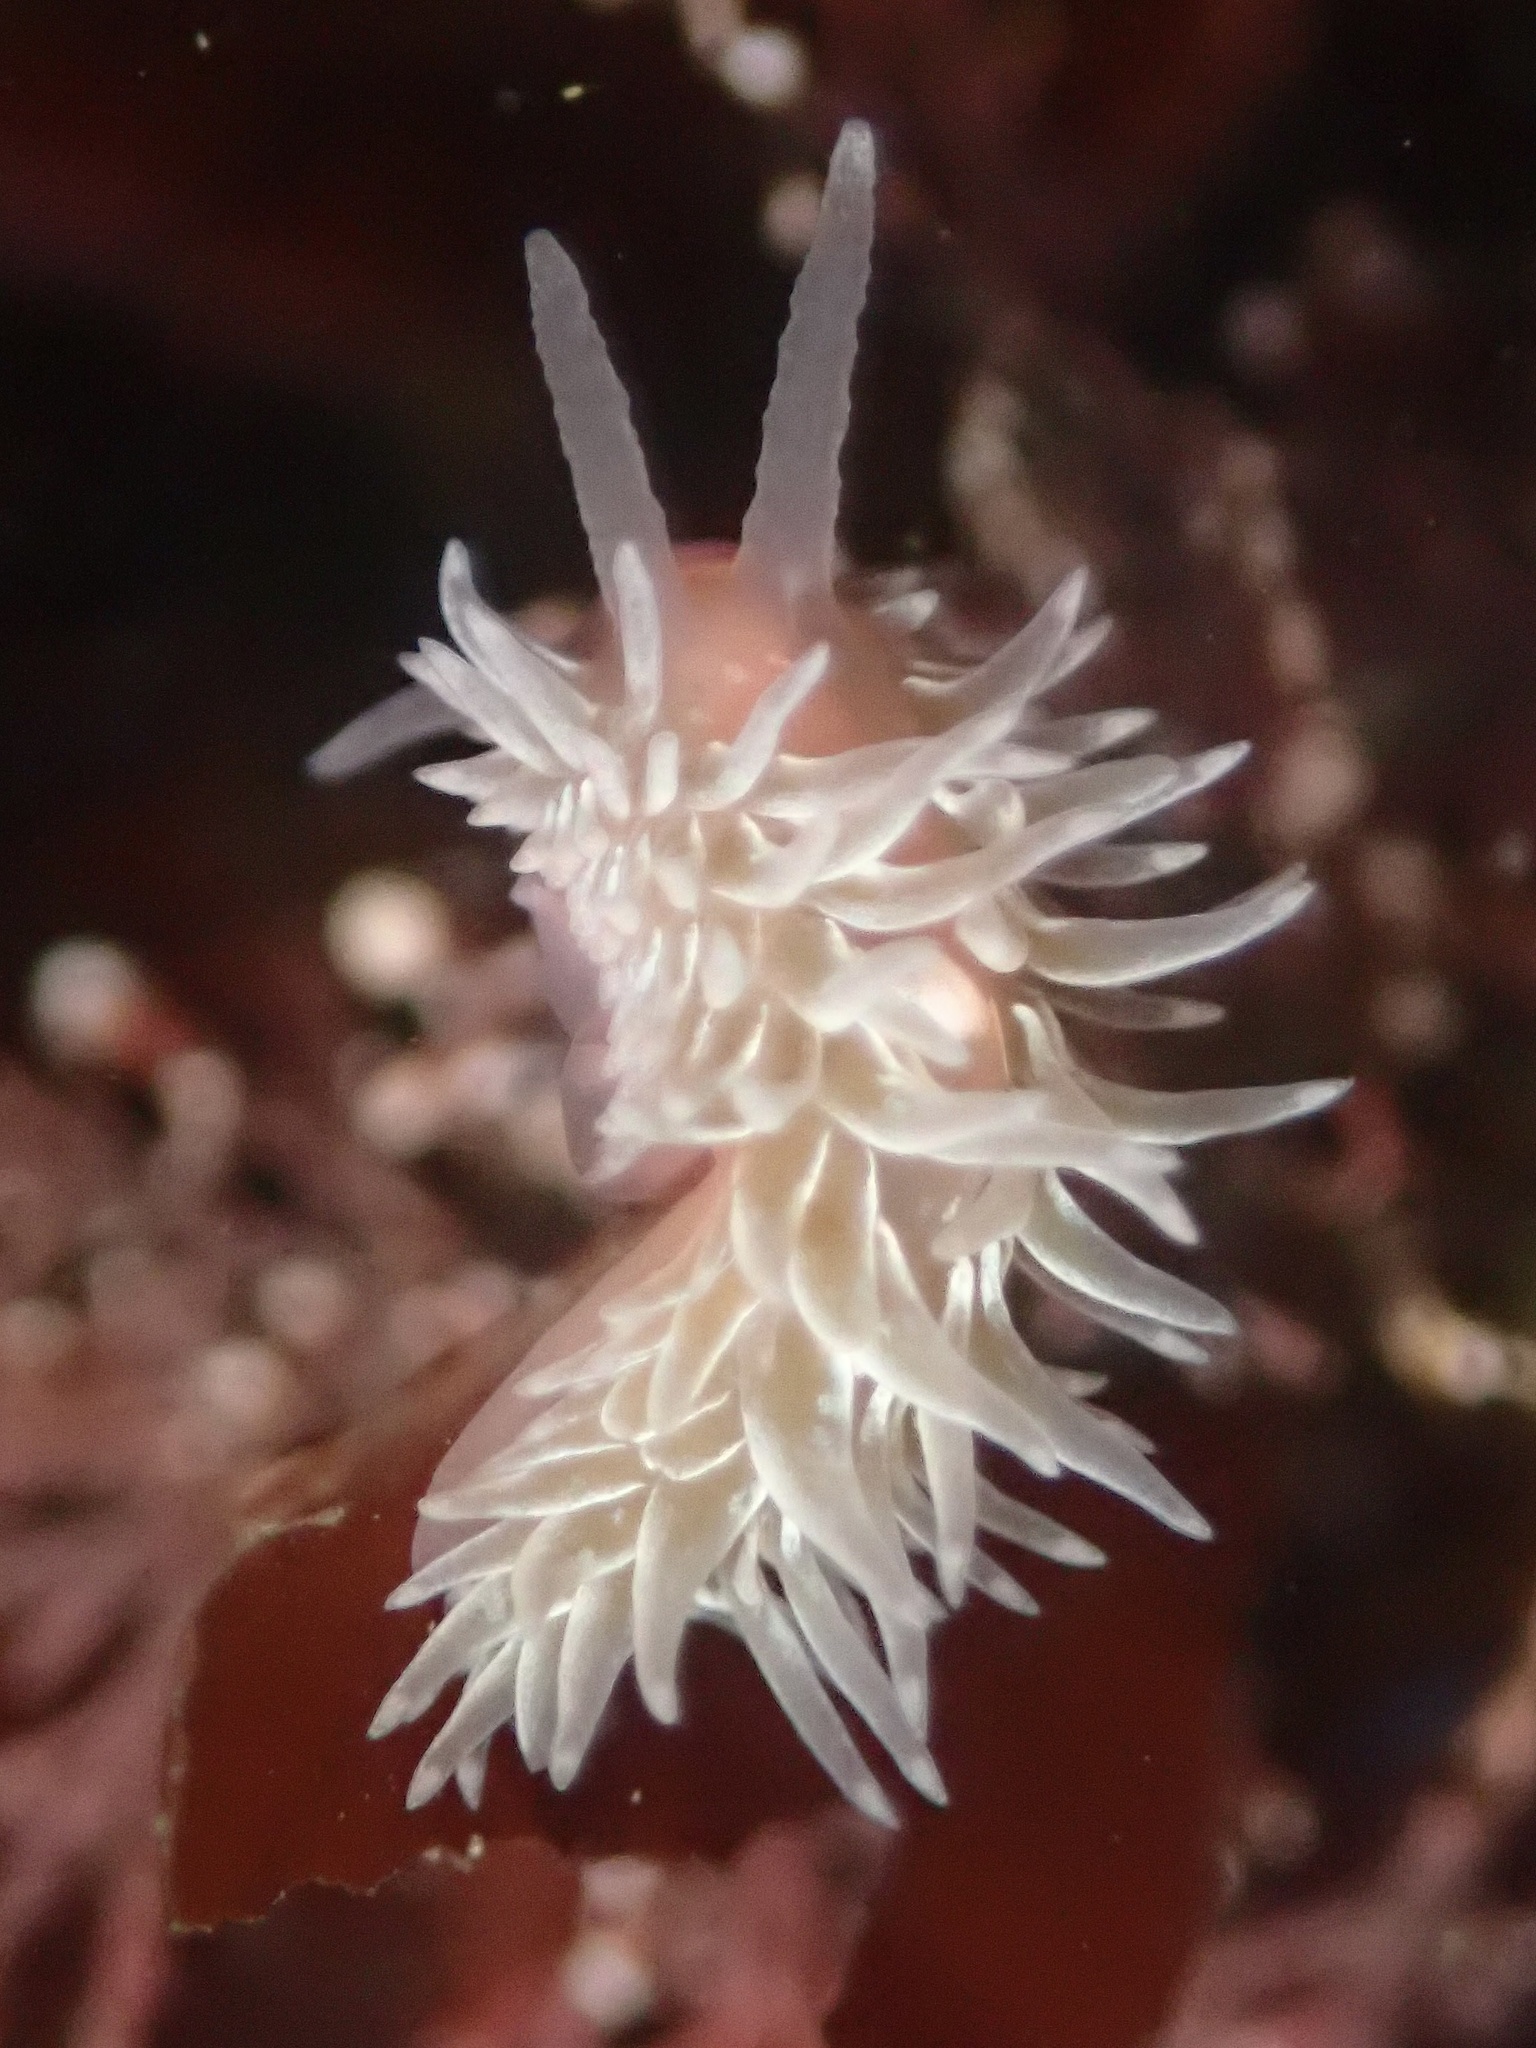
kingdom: Animalia
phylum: Mollusca
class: Gastropoda
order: Nudibranchia
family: Aeolidiidae
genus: Aeolidia
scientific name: Aeolidia loui
